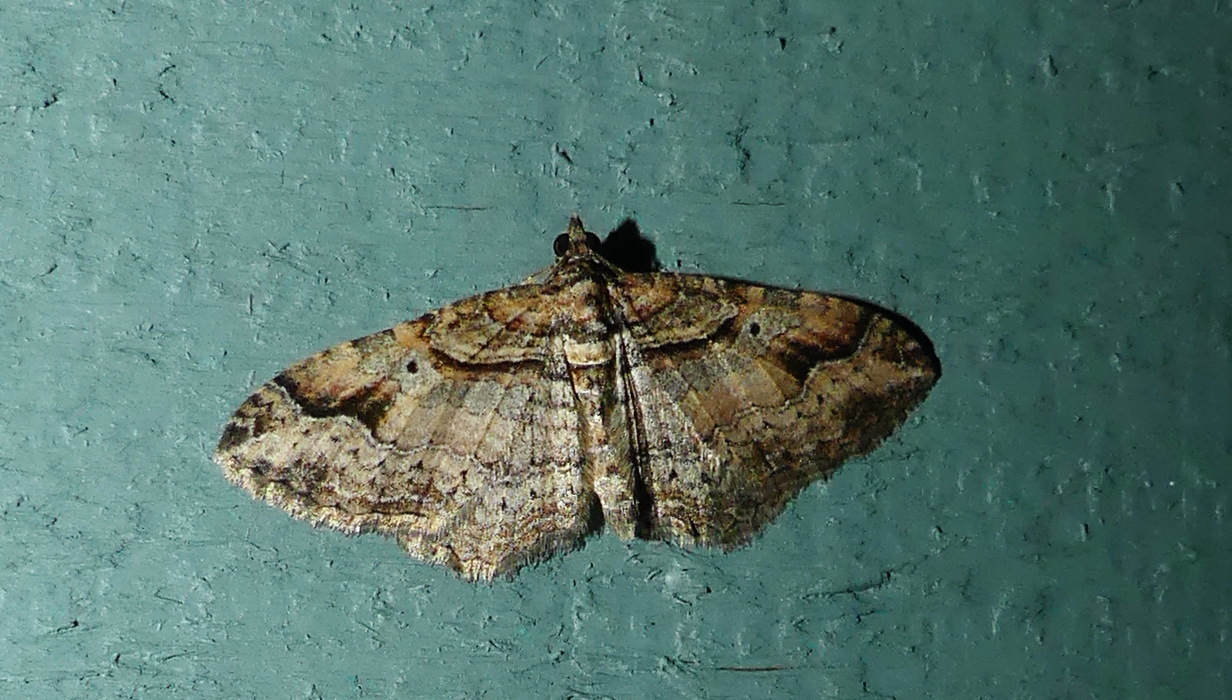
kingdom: Animalia
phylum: Arthropoda
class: Insecta
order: Lepidoptera
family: Geometridae
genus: Costaconvexa
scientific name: Costaconvexa centrostrigaria
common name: Bent-line carpet
